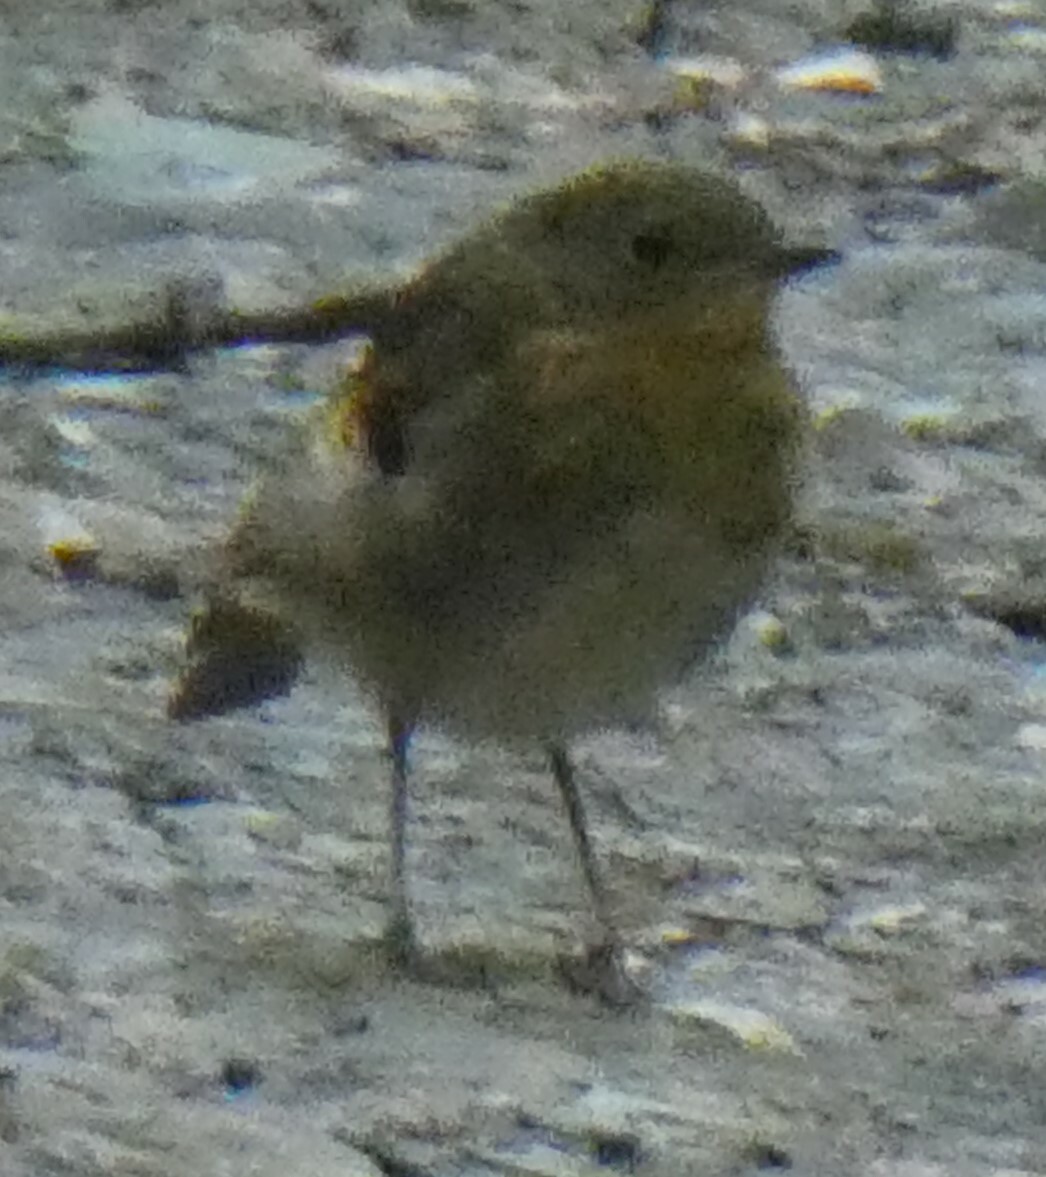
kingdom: Animalia
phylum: Chordata
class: Aves
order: Passeriformes
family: Muscicapidae
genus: Erithacus
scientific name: Erithacus rubecula
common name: European robin
